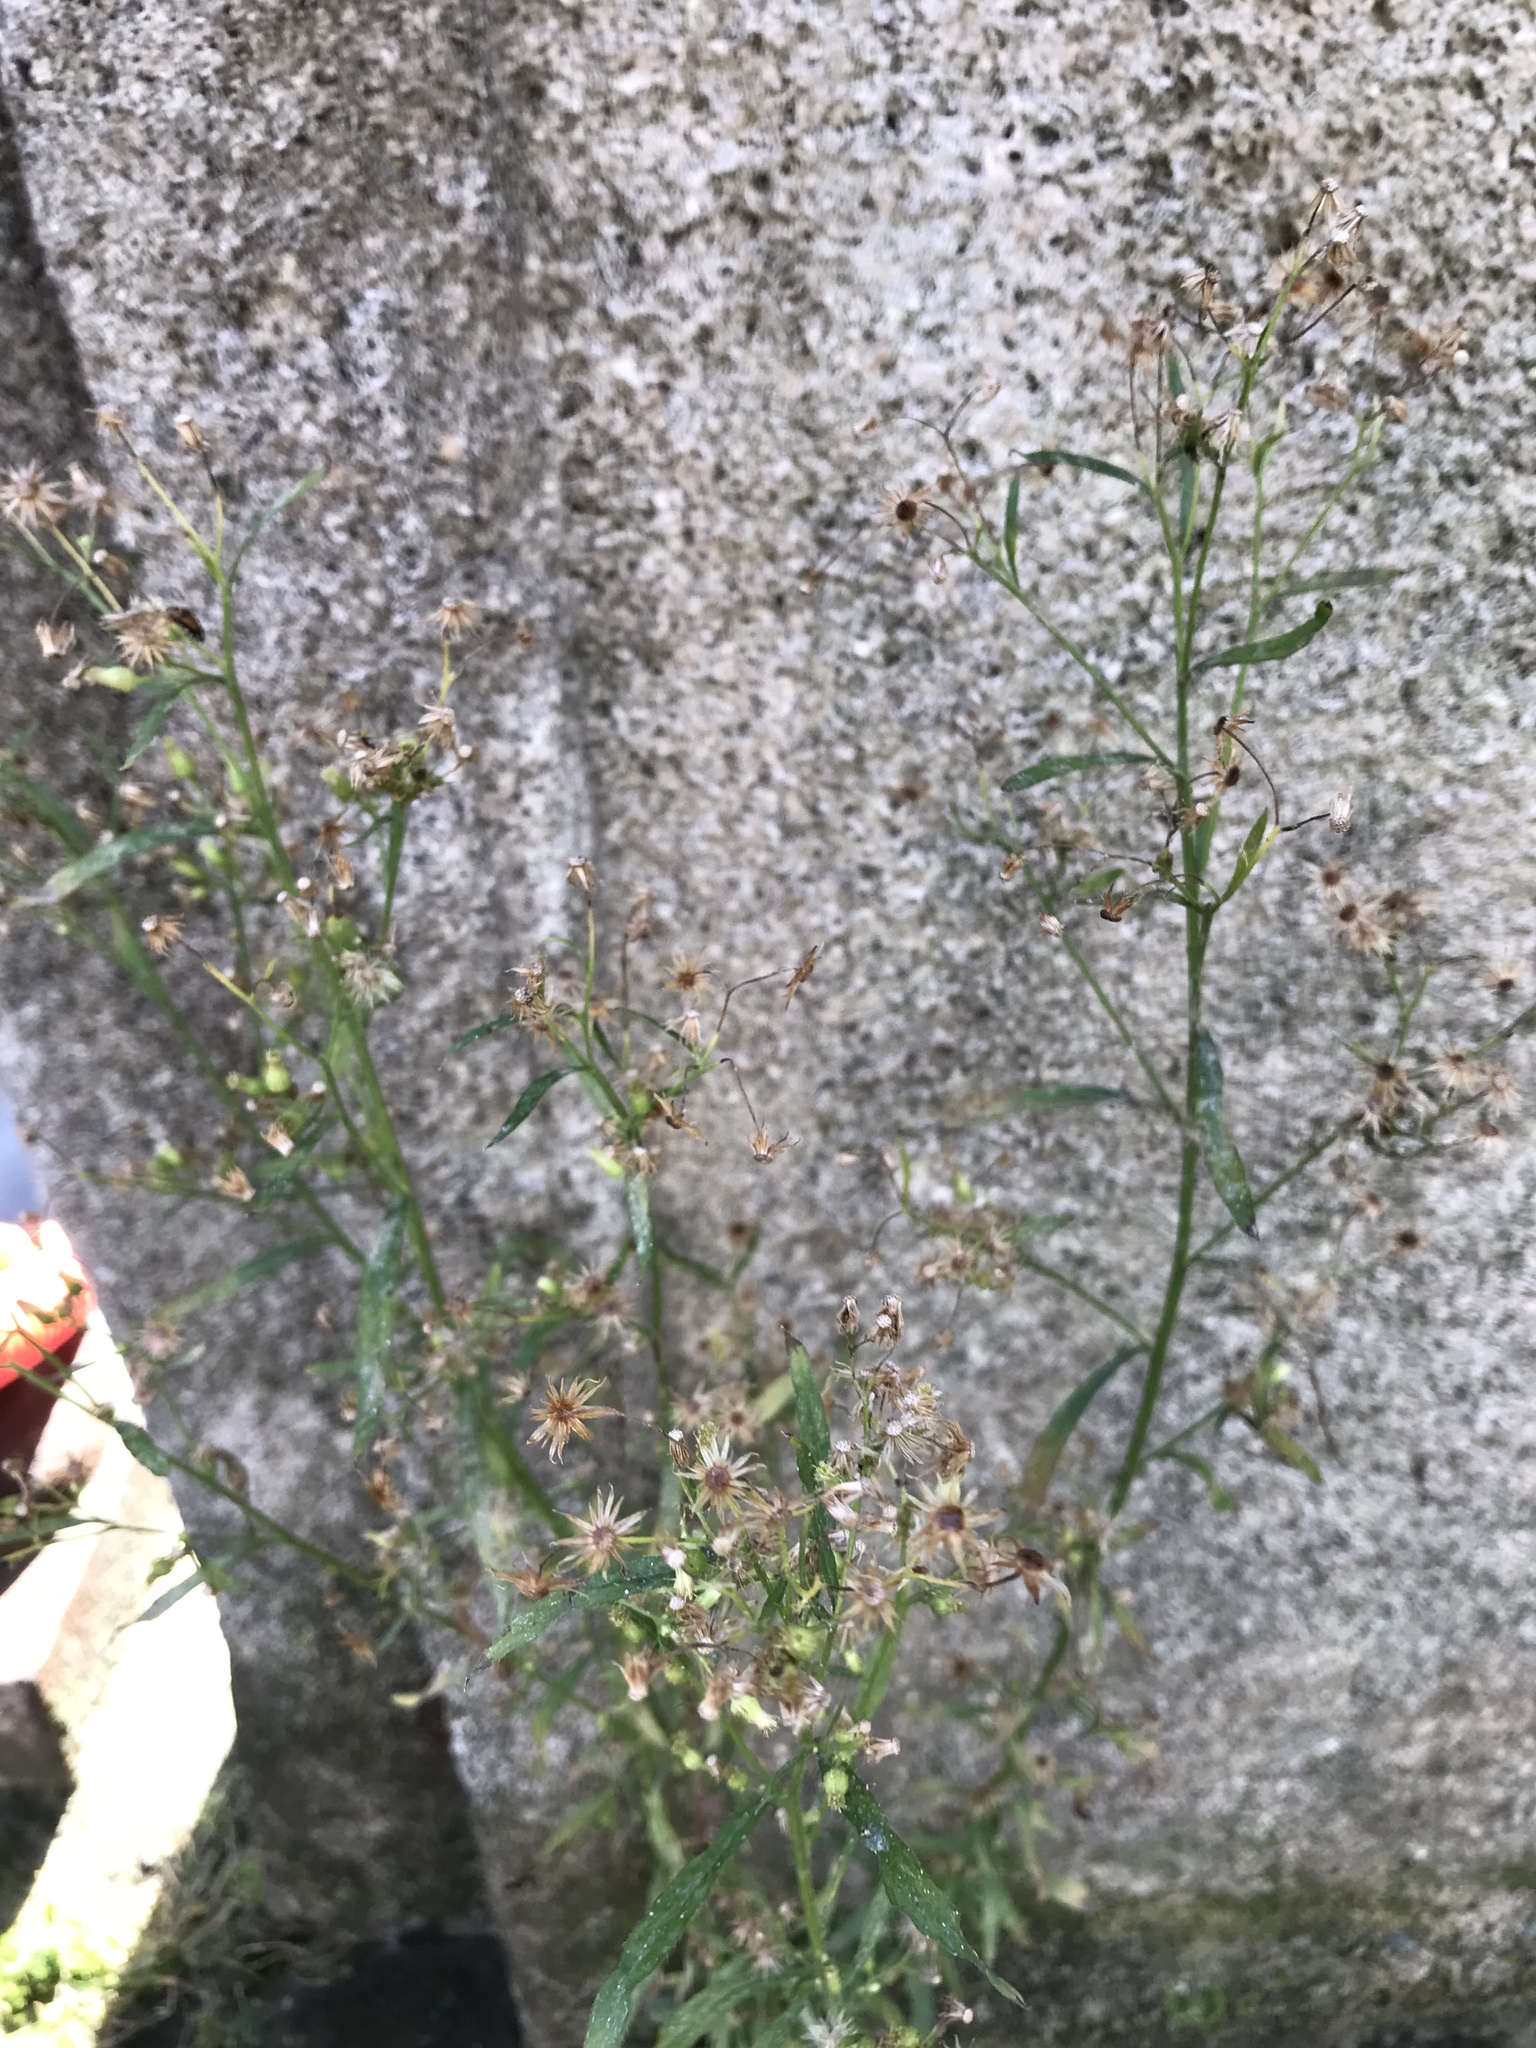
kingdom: Plantae
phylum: Tracheophyta
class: Magnoliopsida
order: Asterales
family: Asteraceae
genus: Erigeron
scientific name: Erigeron canadensis
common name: Canadian fleabane
